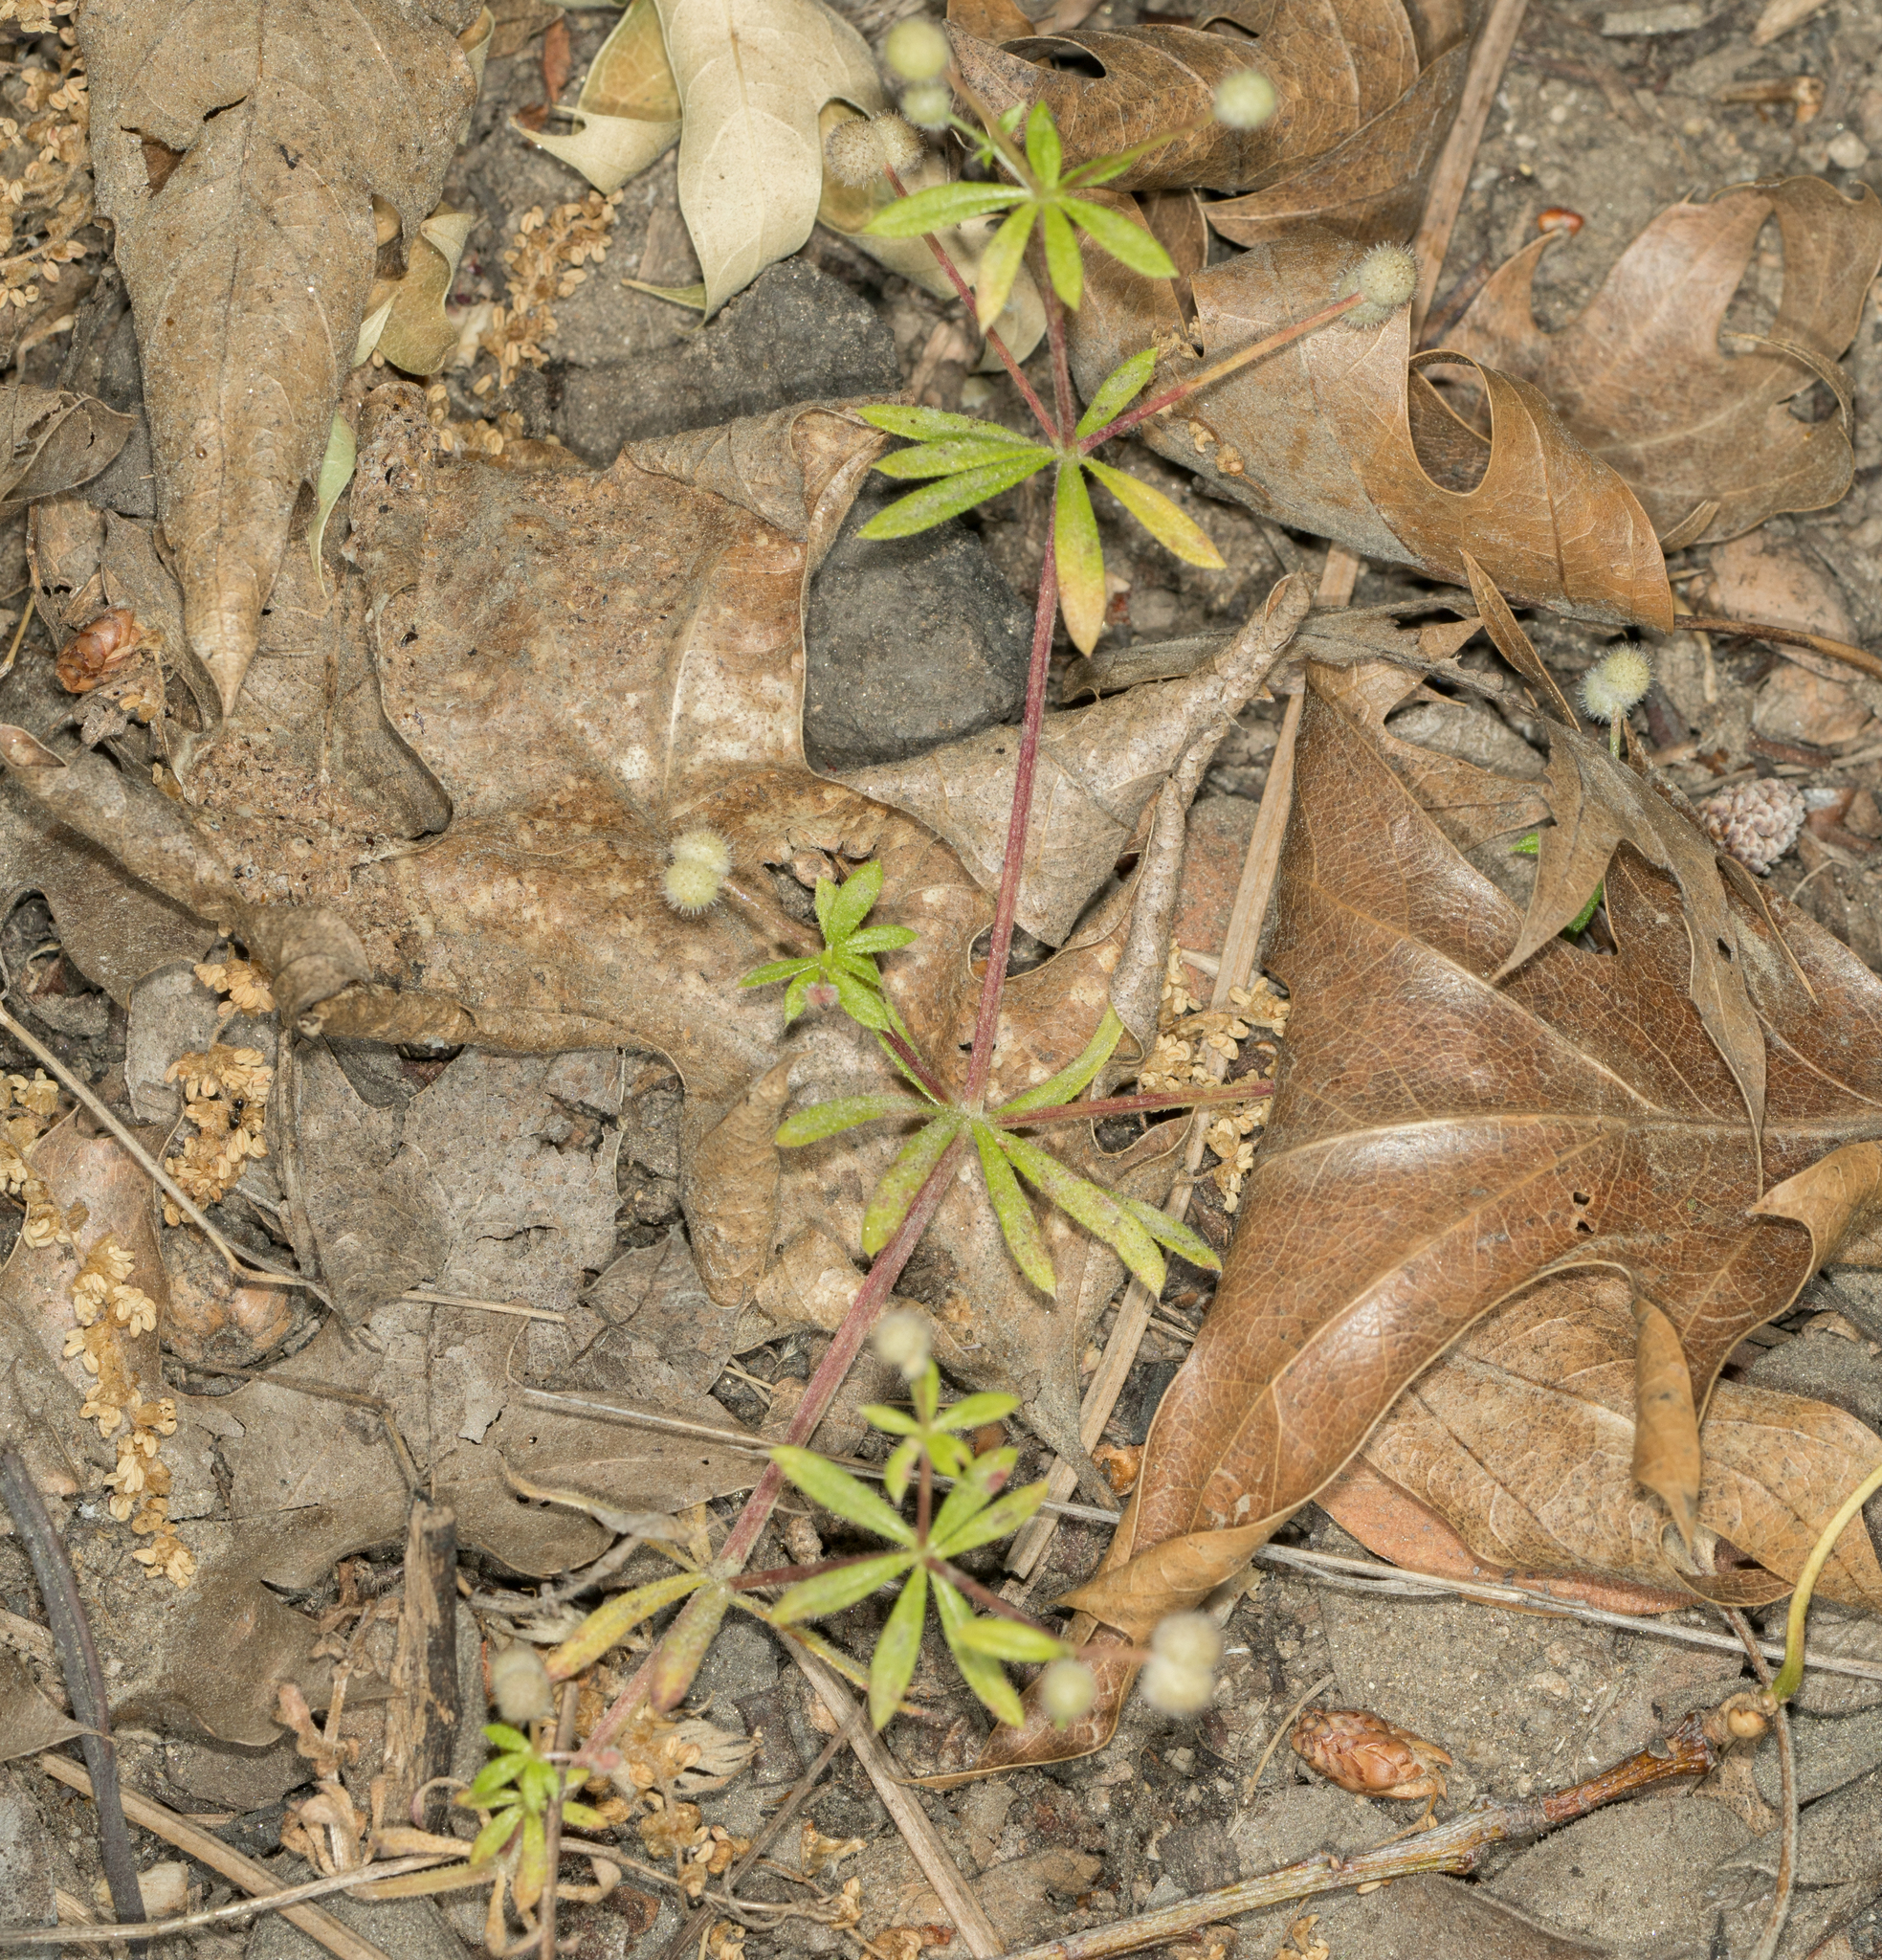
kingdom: Plantae
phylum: Tracheophyta
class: Magnoliopsida
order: Gentianales
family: Rubiaceae
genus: Galium
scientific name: Galium aparine
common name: Cleavers
